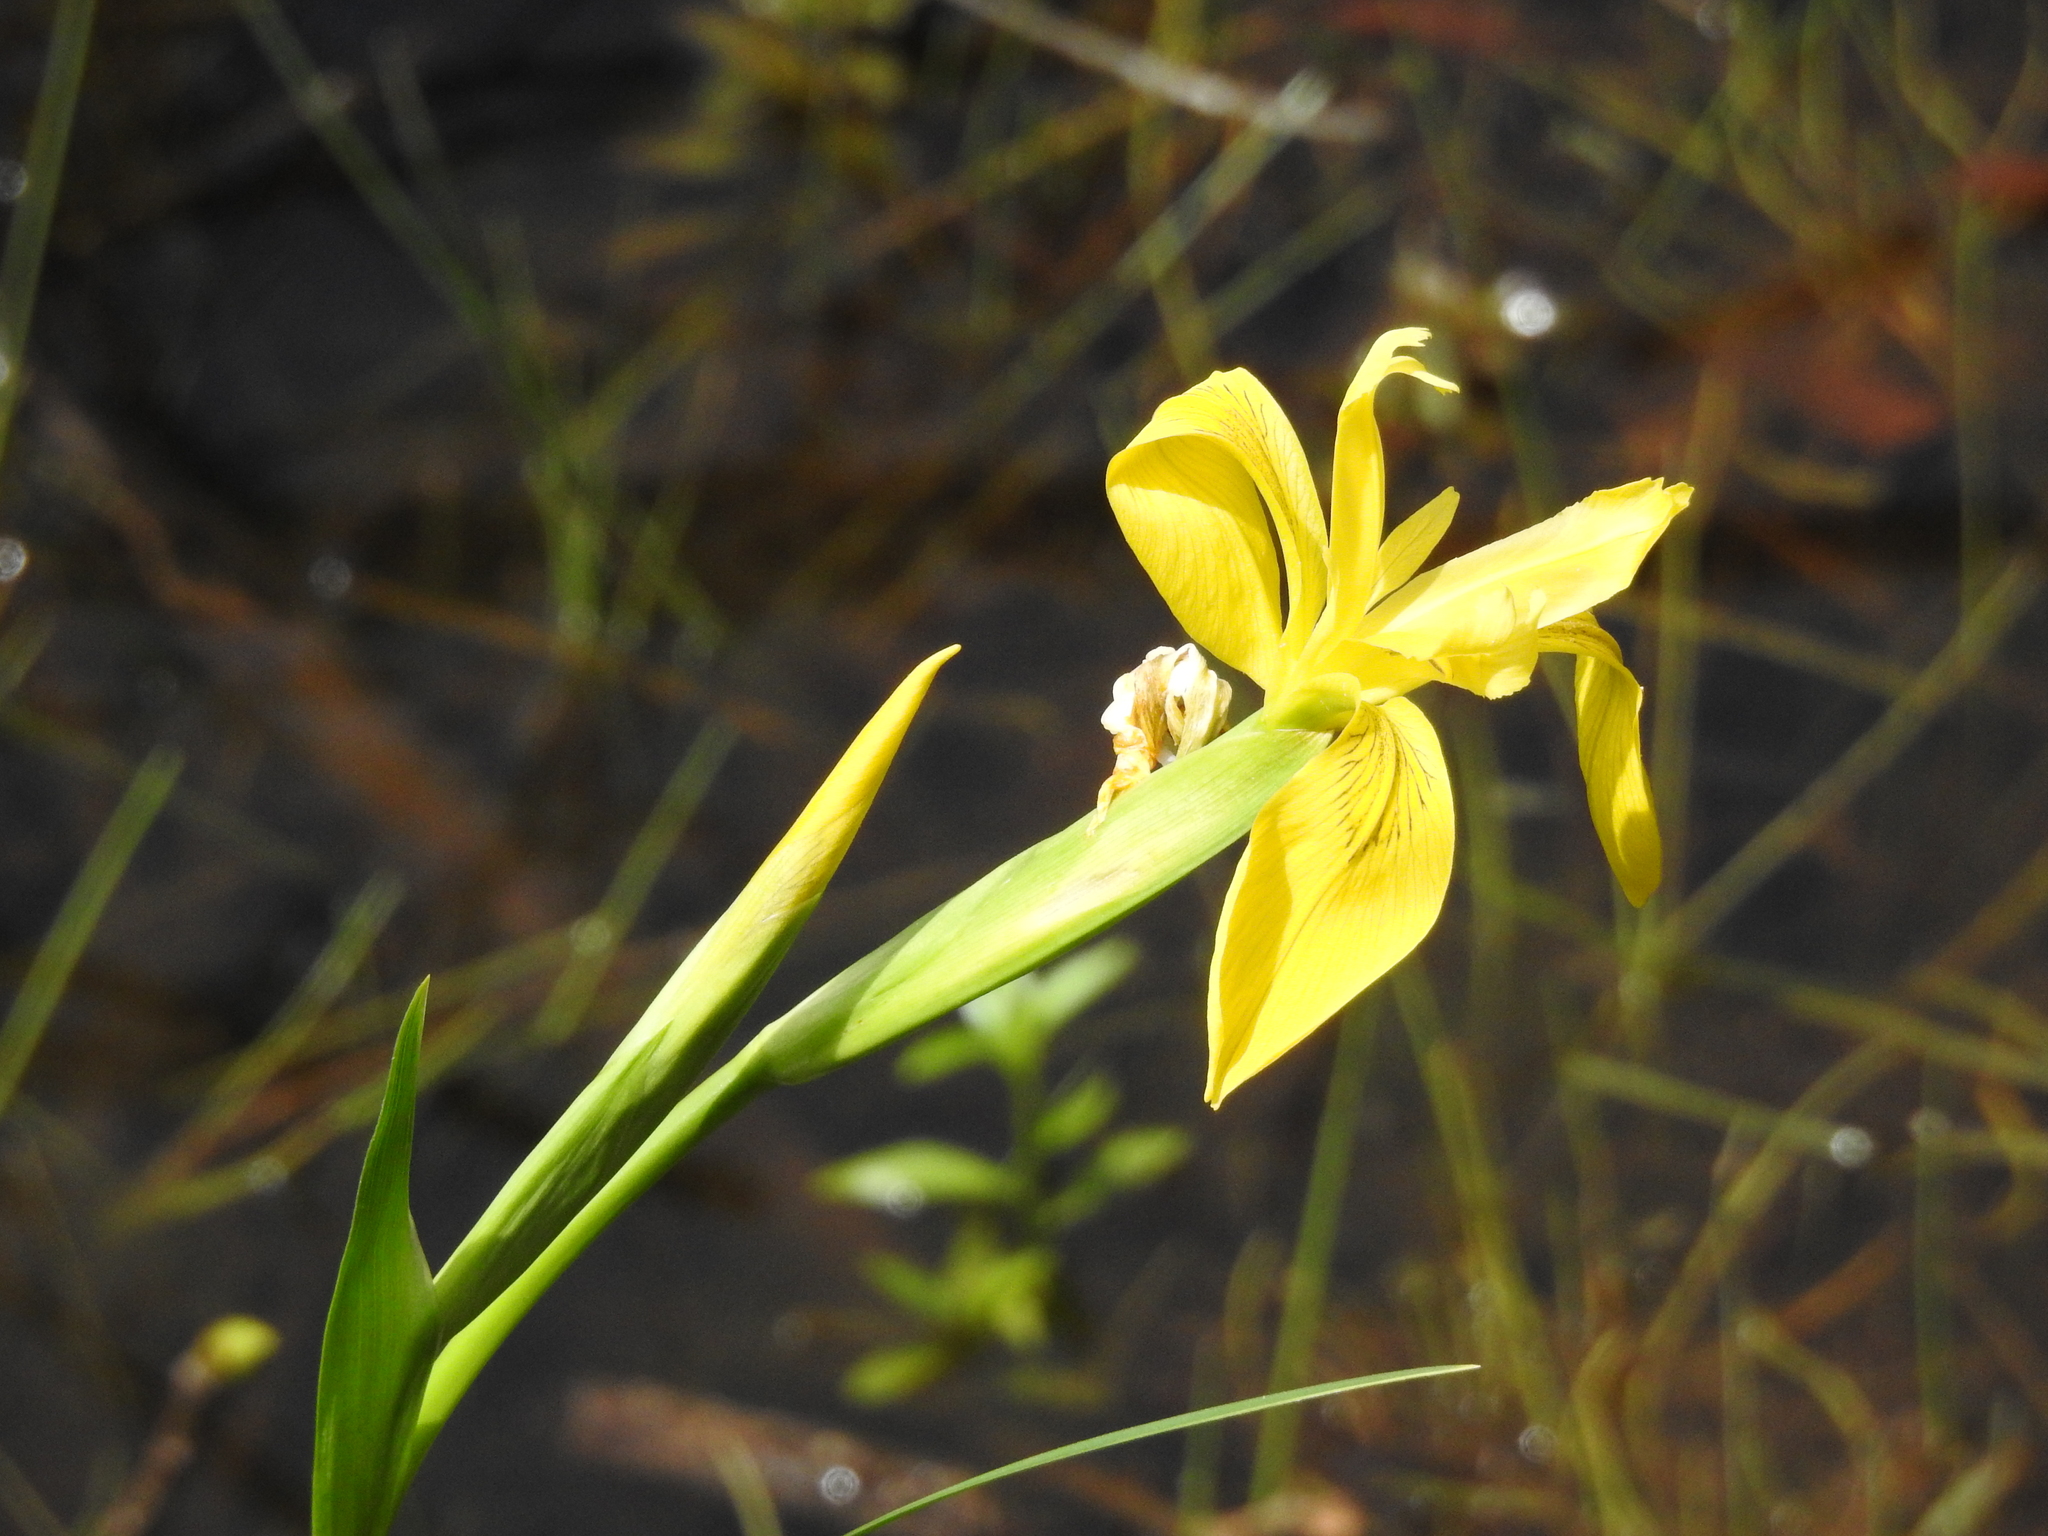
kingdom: Plantae
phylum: Tracheophyta
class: Liliopsida
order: Asparagales
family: Iridaceae
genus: Iris
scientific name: Iris pseudacorus
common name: Yellow flag
